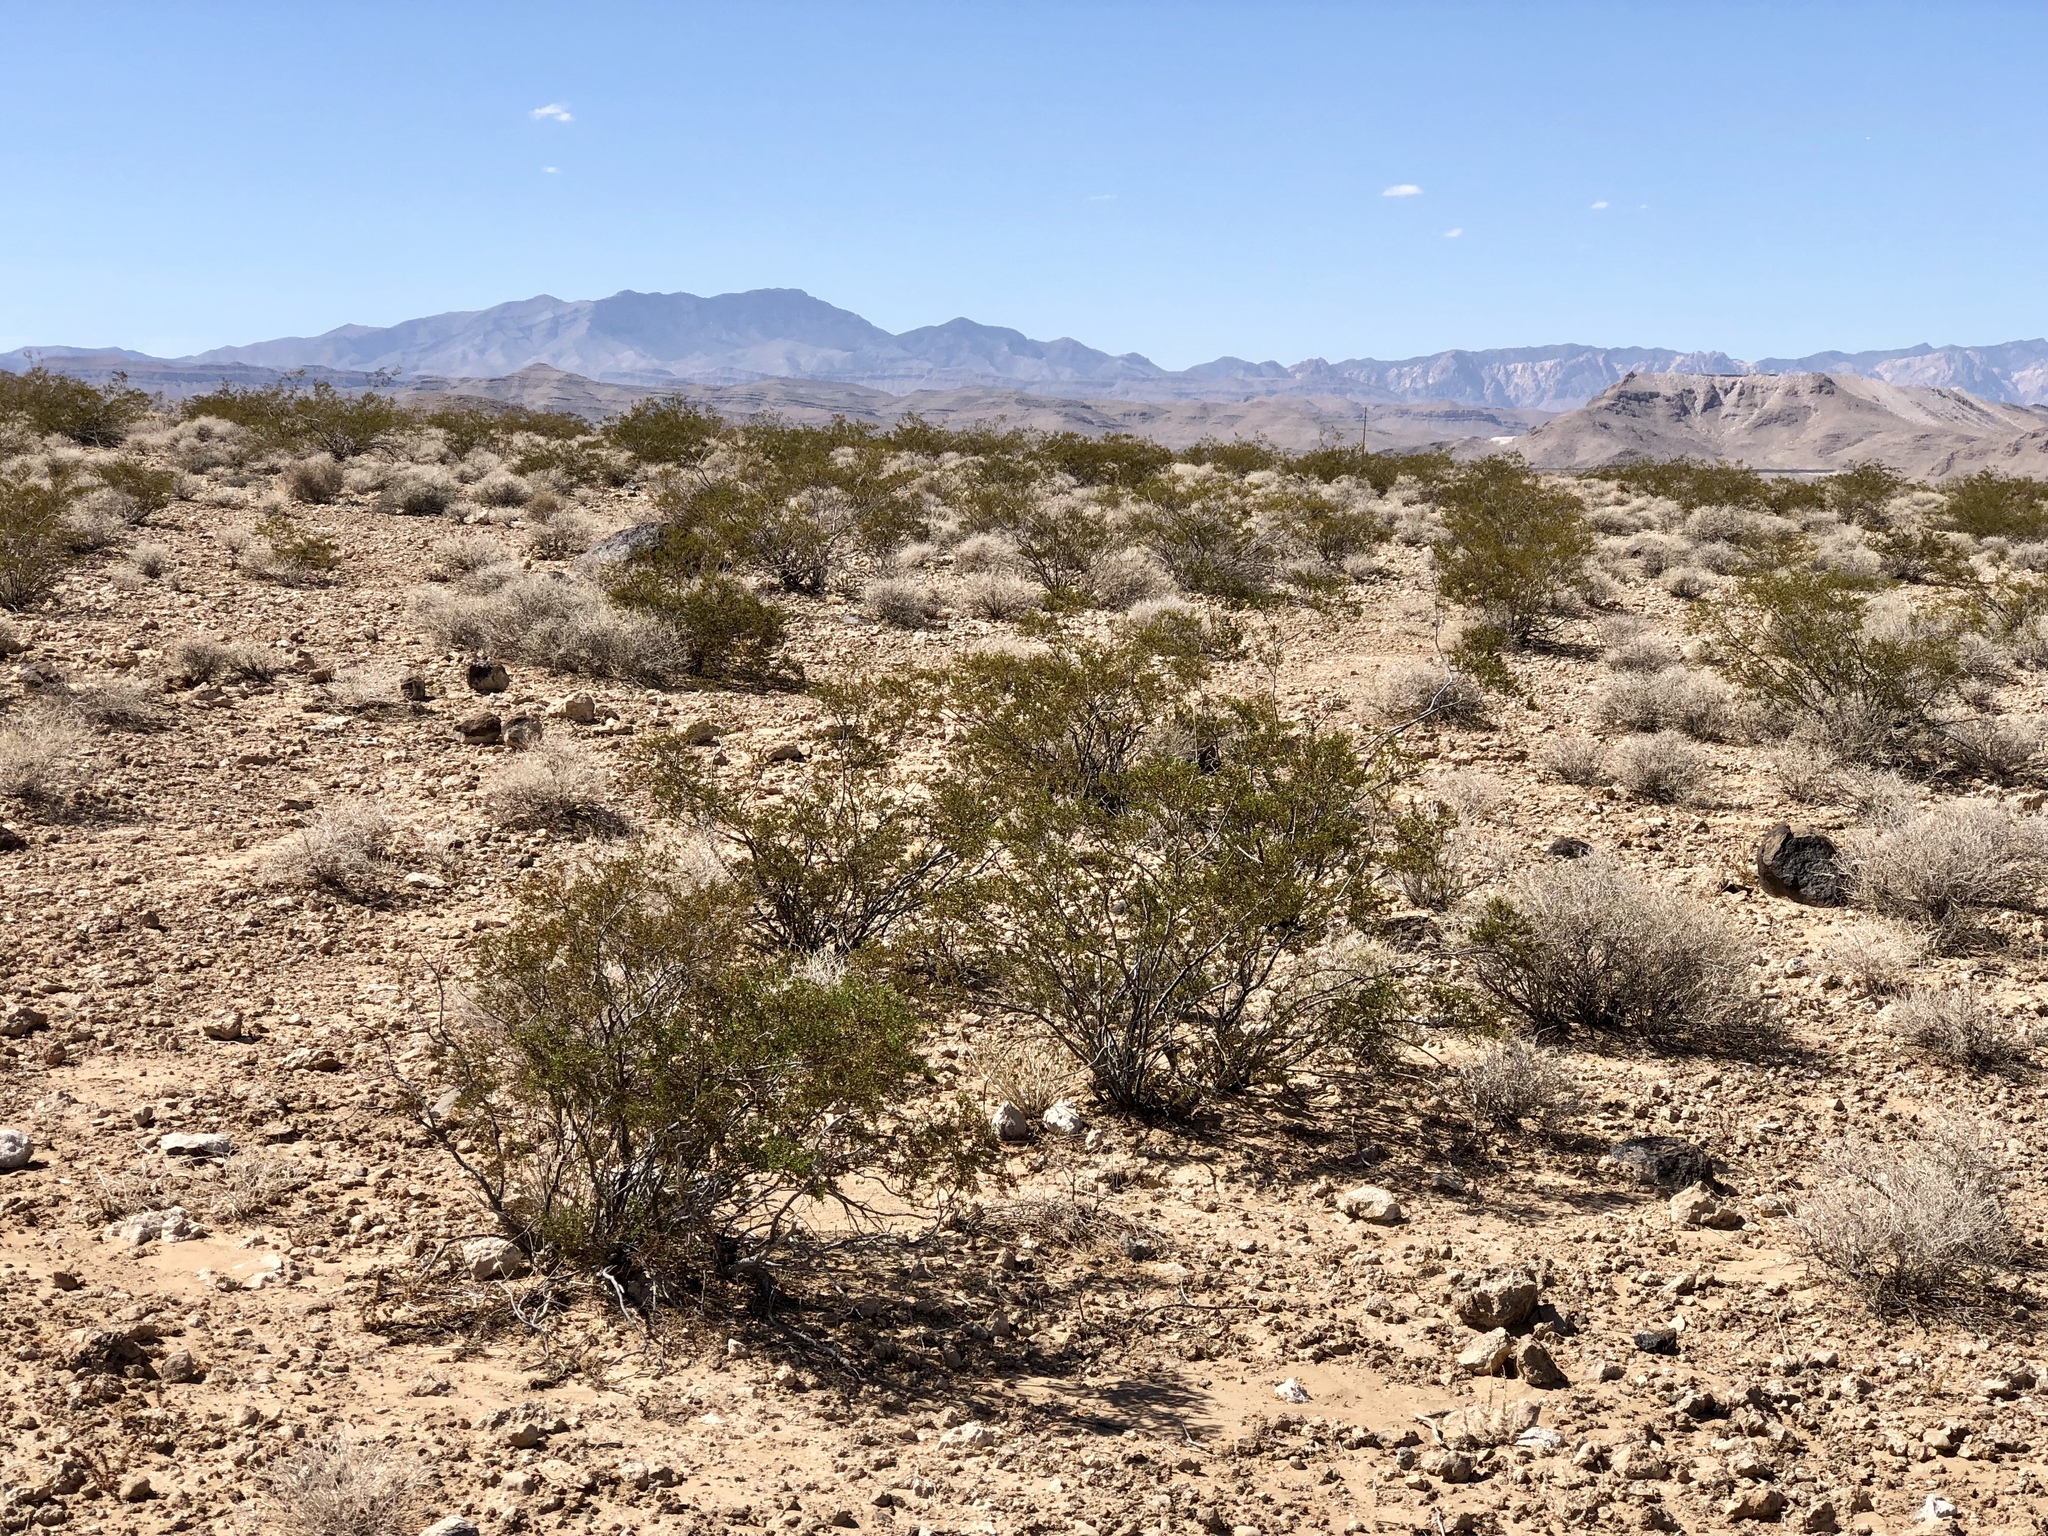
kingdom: Plantae
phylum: Tracheophyta
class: Magnoliopsida
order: Zygophyllales
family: Zygophyllaceae
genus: Larrea
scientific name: Larrea tridentata
